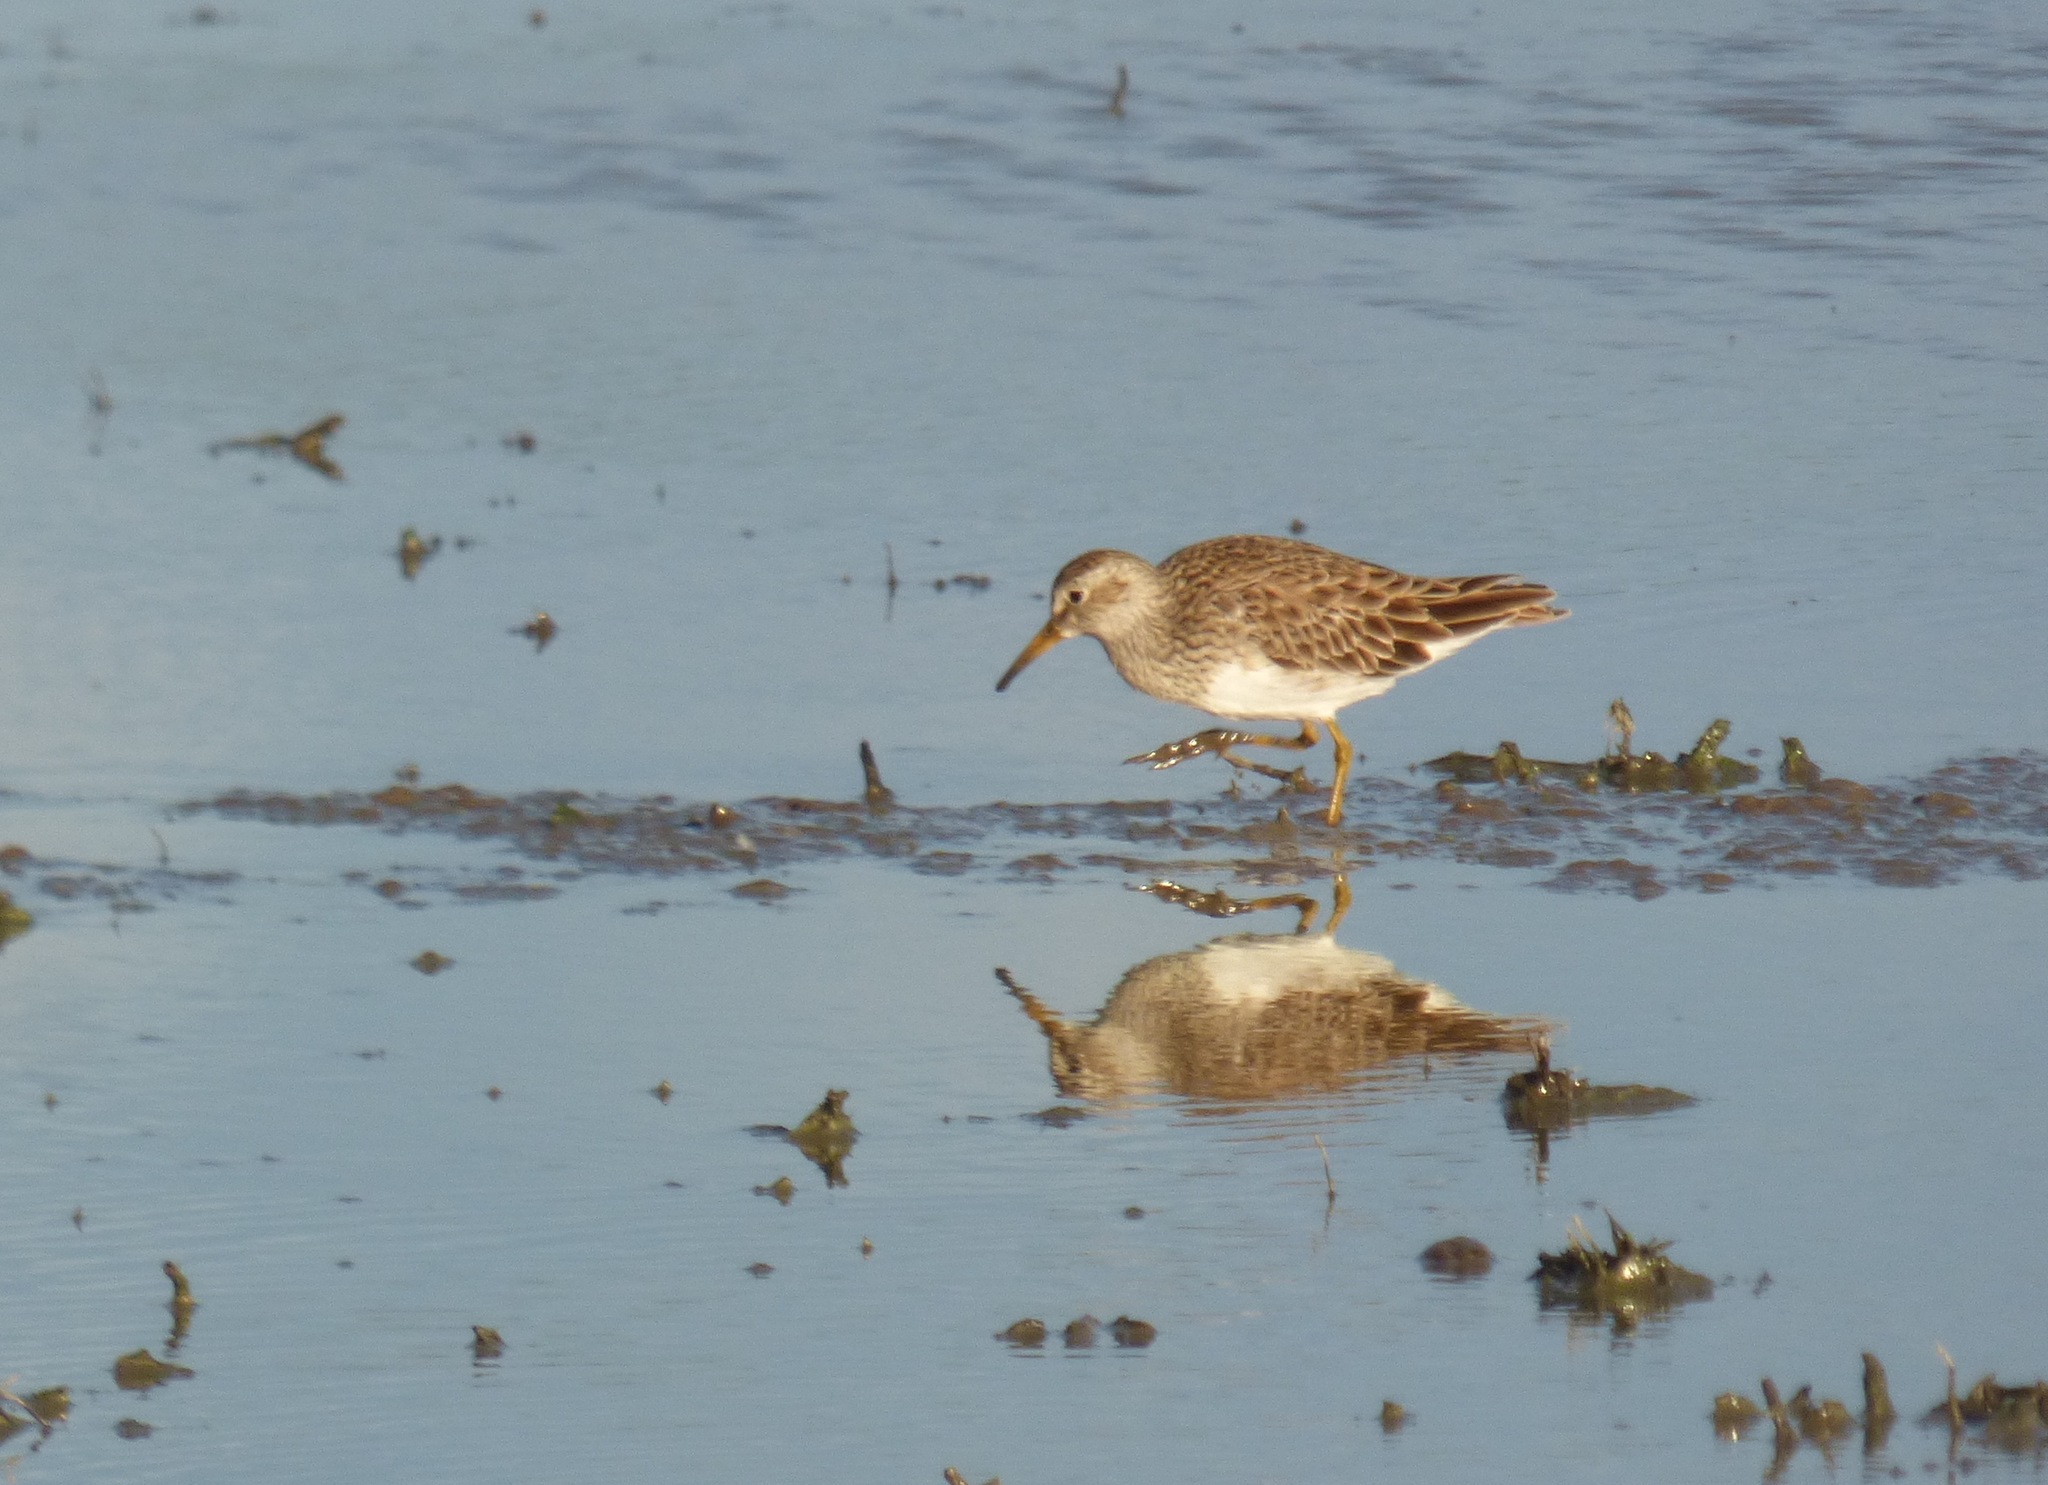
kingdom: Animalia
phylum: Chordata
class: Aves
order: Charadriiformes
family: Scolopacidae
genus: Calidris
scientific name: Calidris melanotos
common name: Pectoral sandpiper
